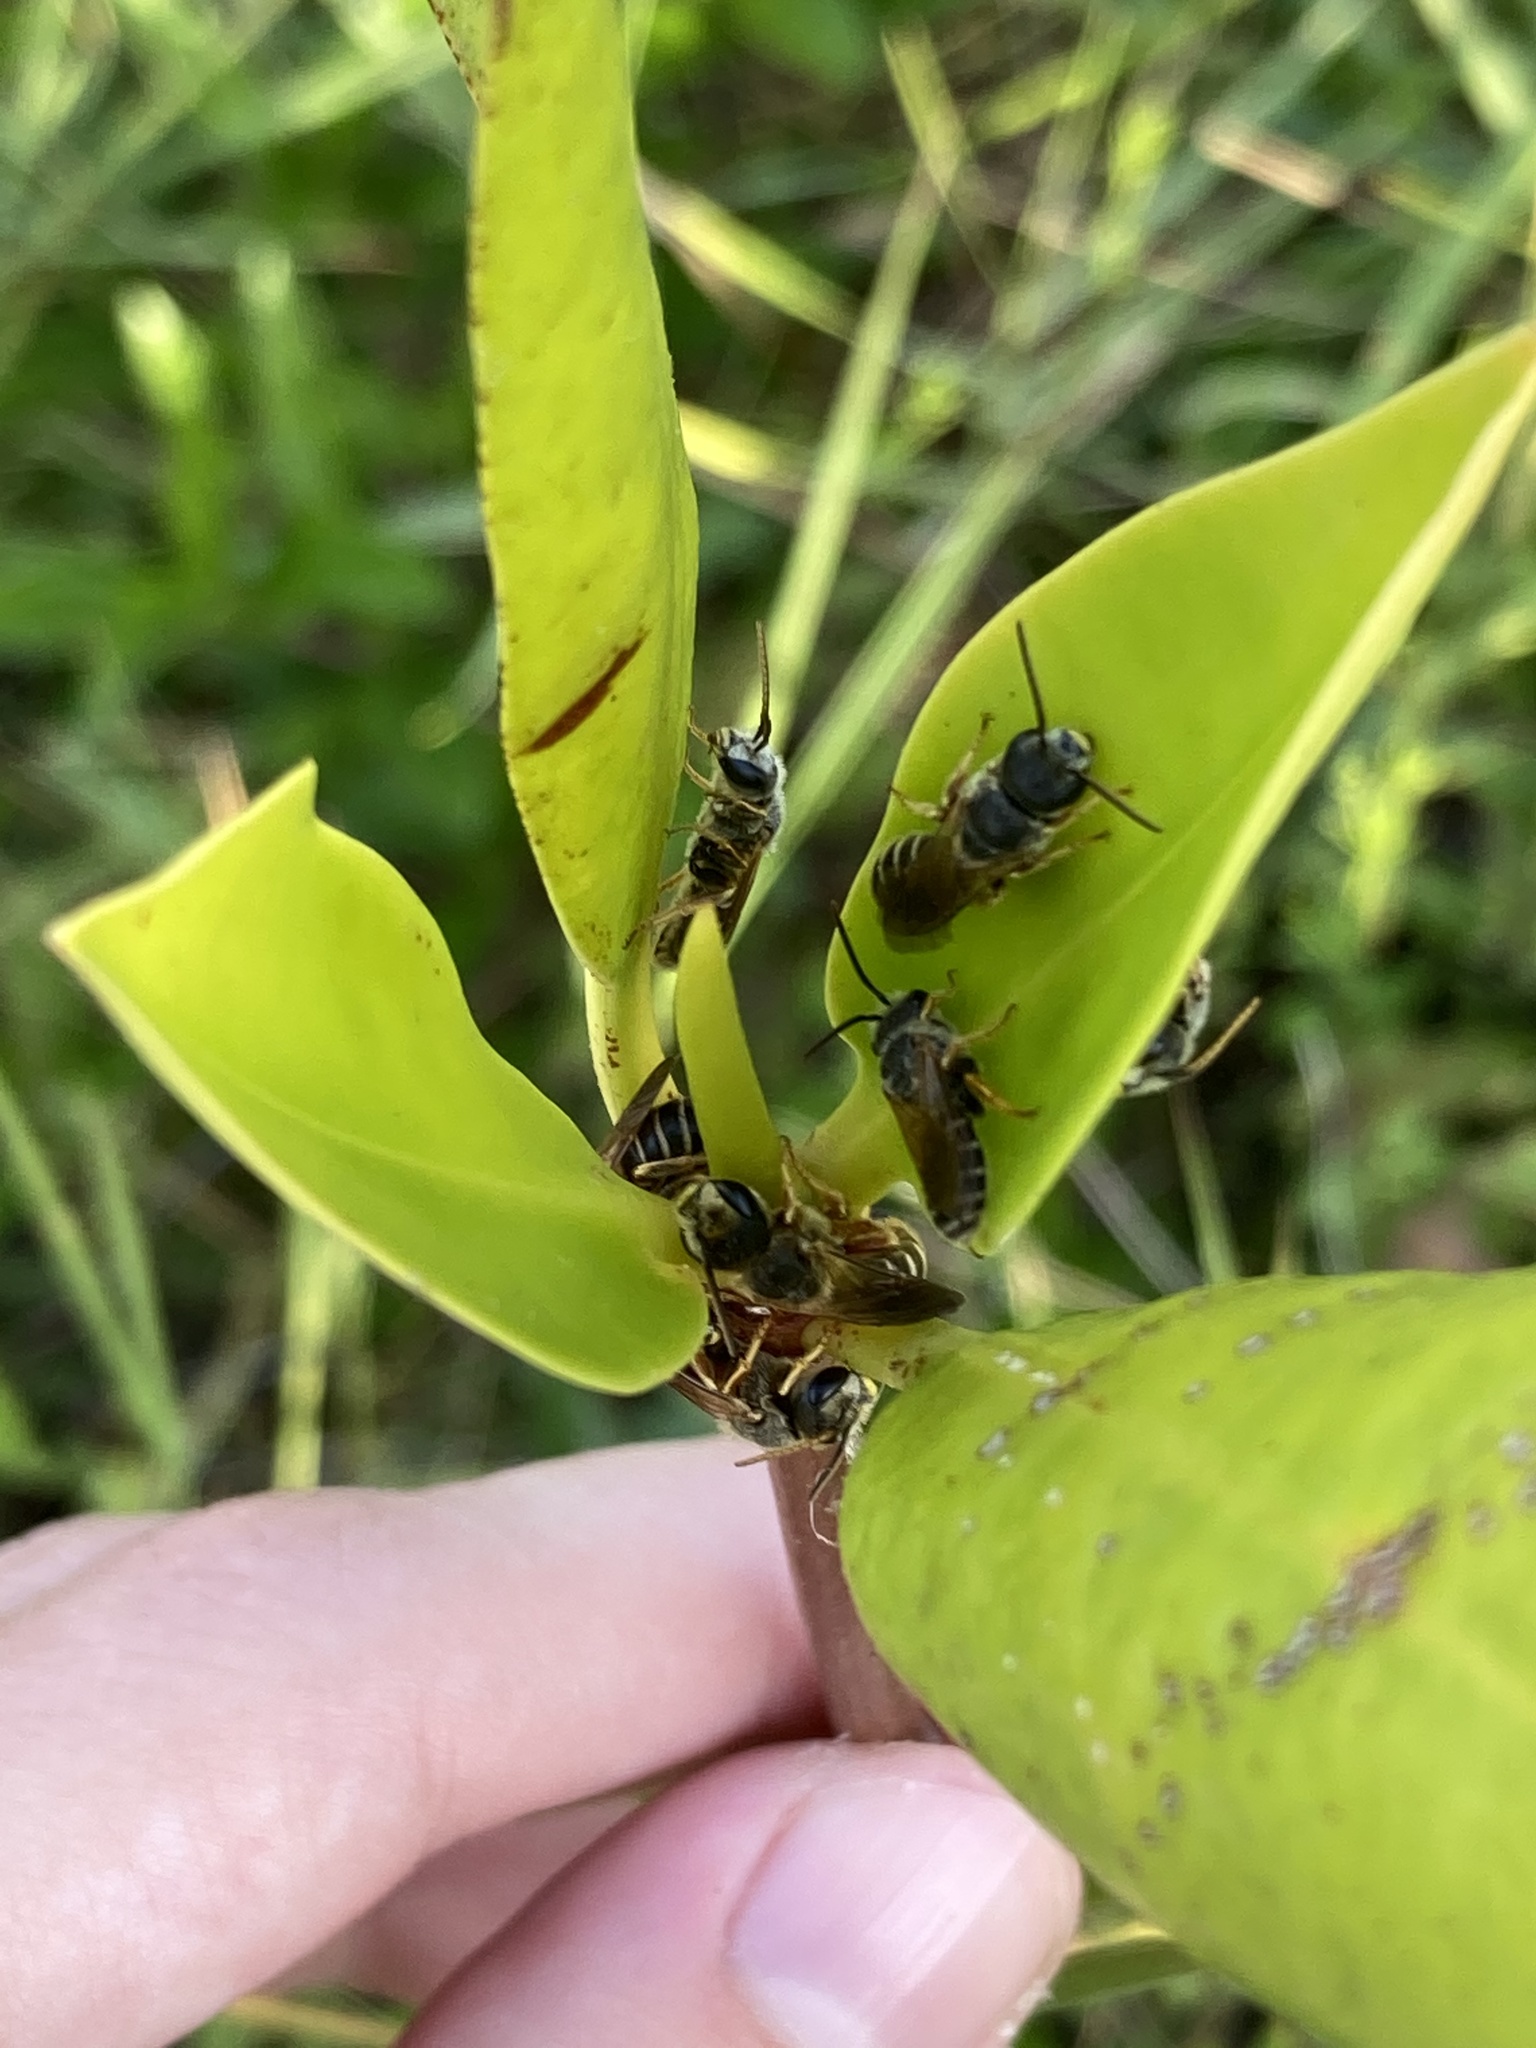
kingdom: Animalia
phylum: Arthropoda
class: Insecta
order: Hymenoptera
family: Halictidae
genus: Halictus
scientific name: Halictus poeyi
